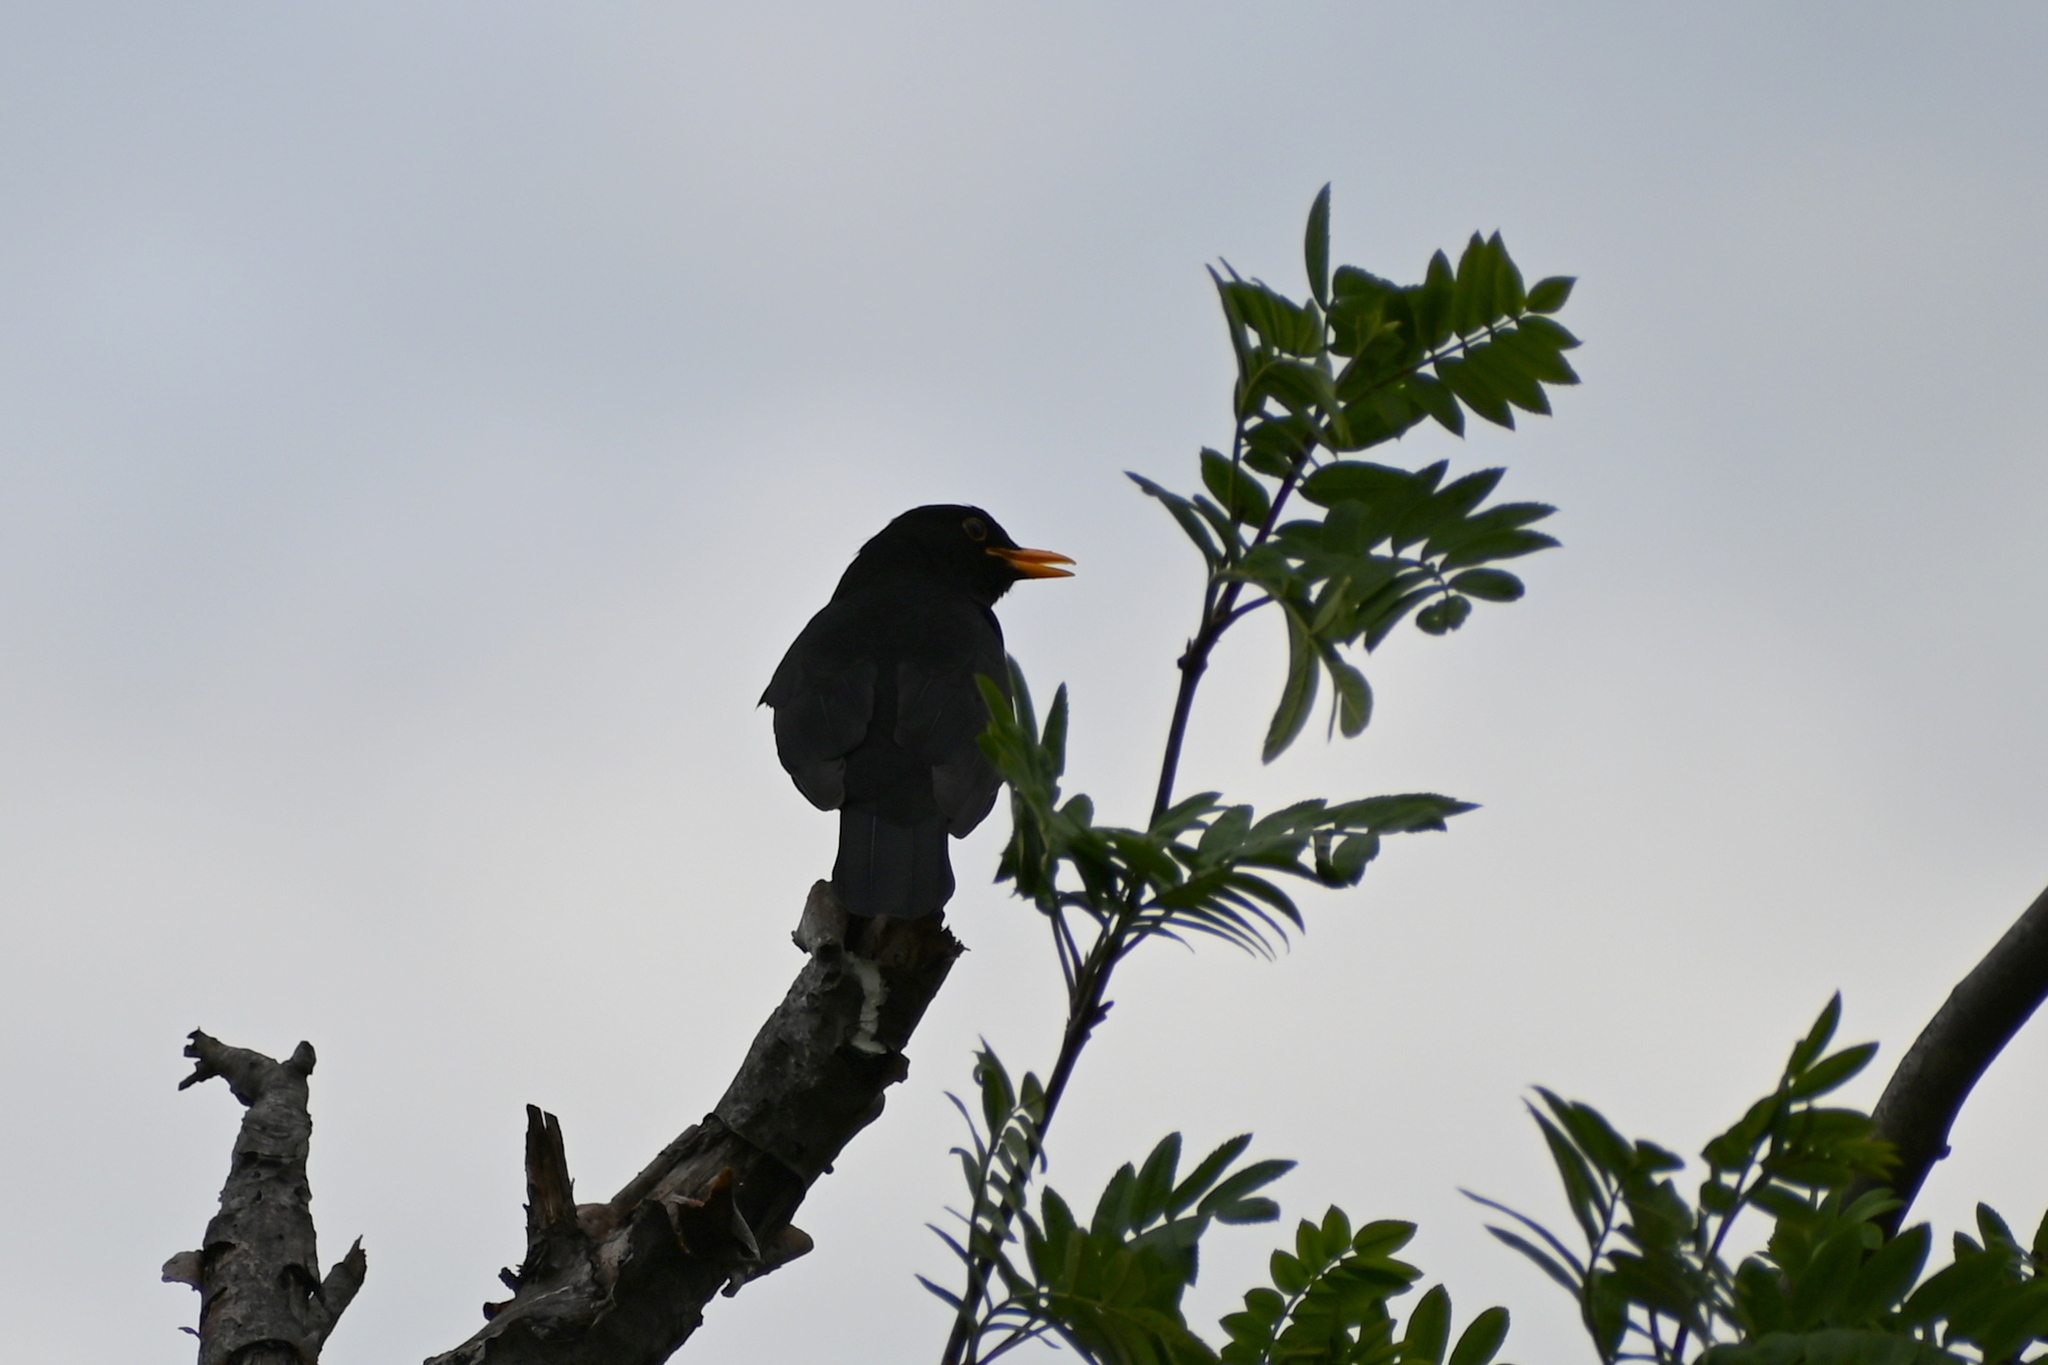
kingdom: Animalia
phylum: Chordata
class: Aves
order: Passeriformes
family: Turdidae
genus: Turdus
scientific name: Turdus merula
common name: Common blackbird
